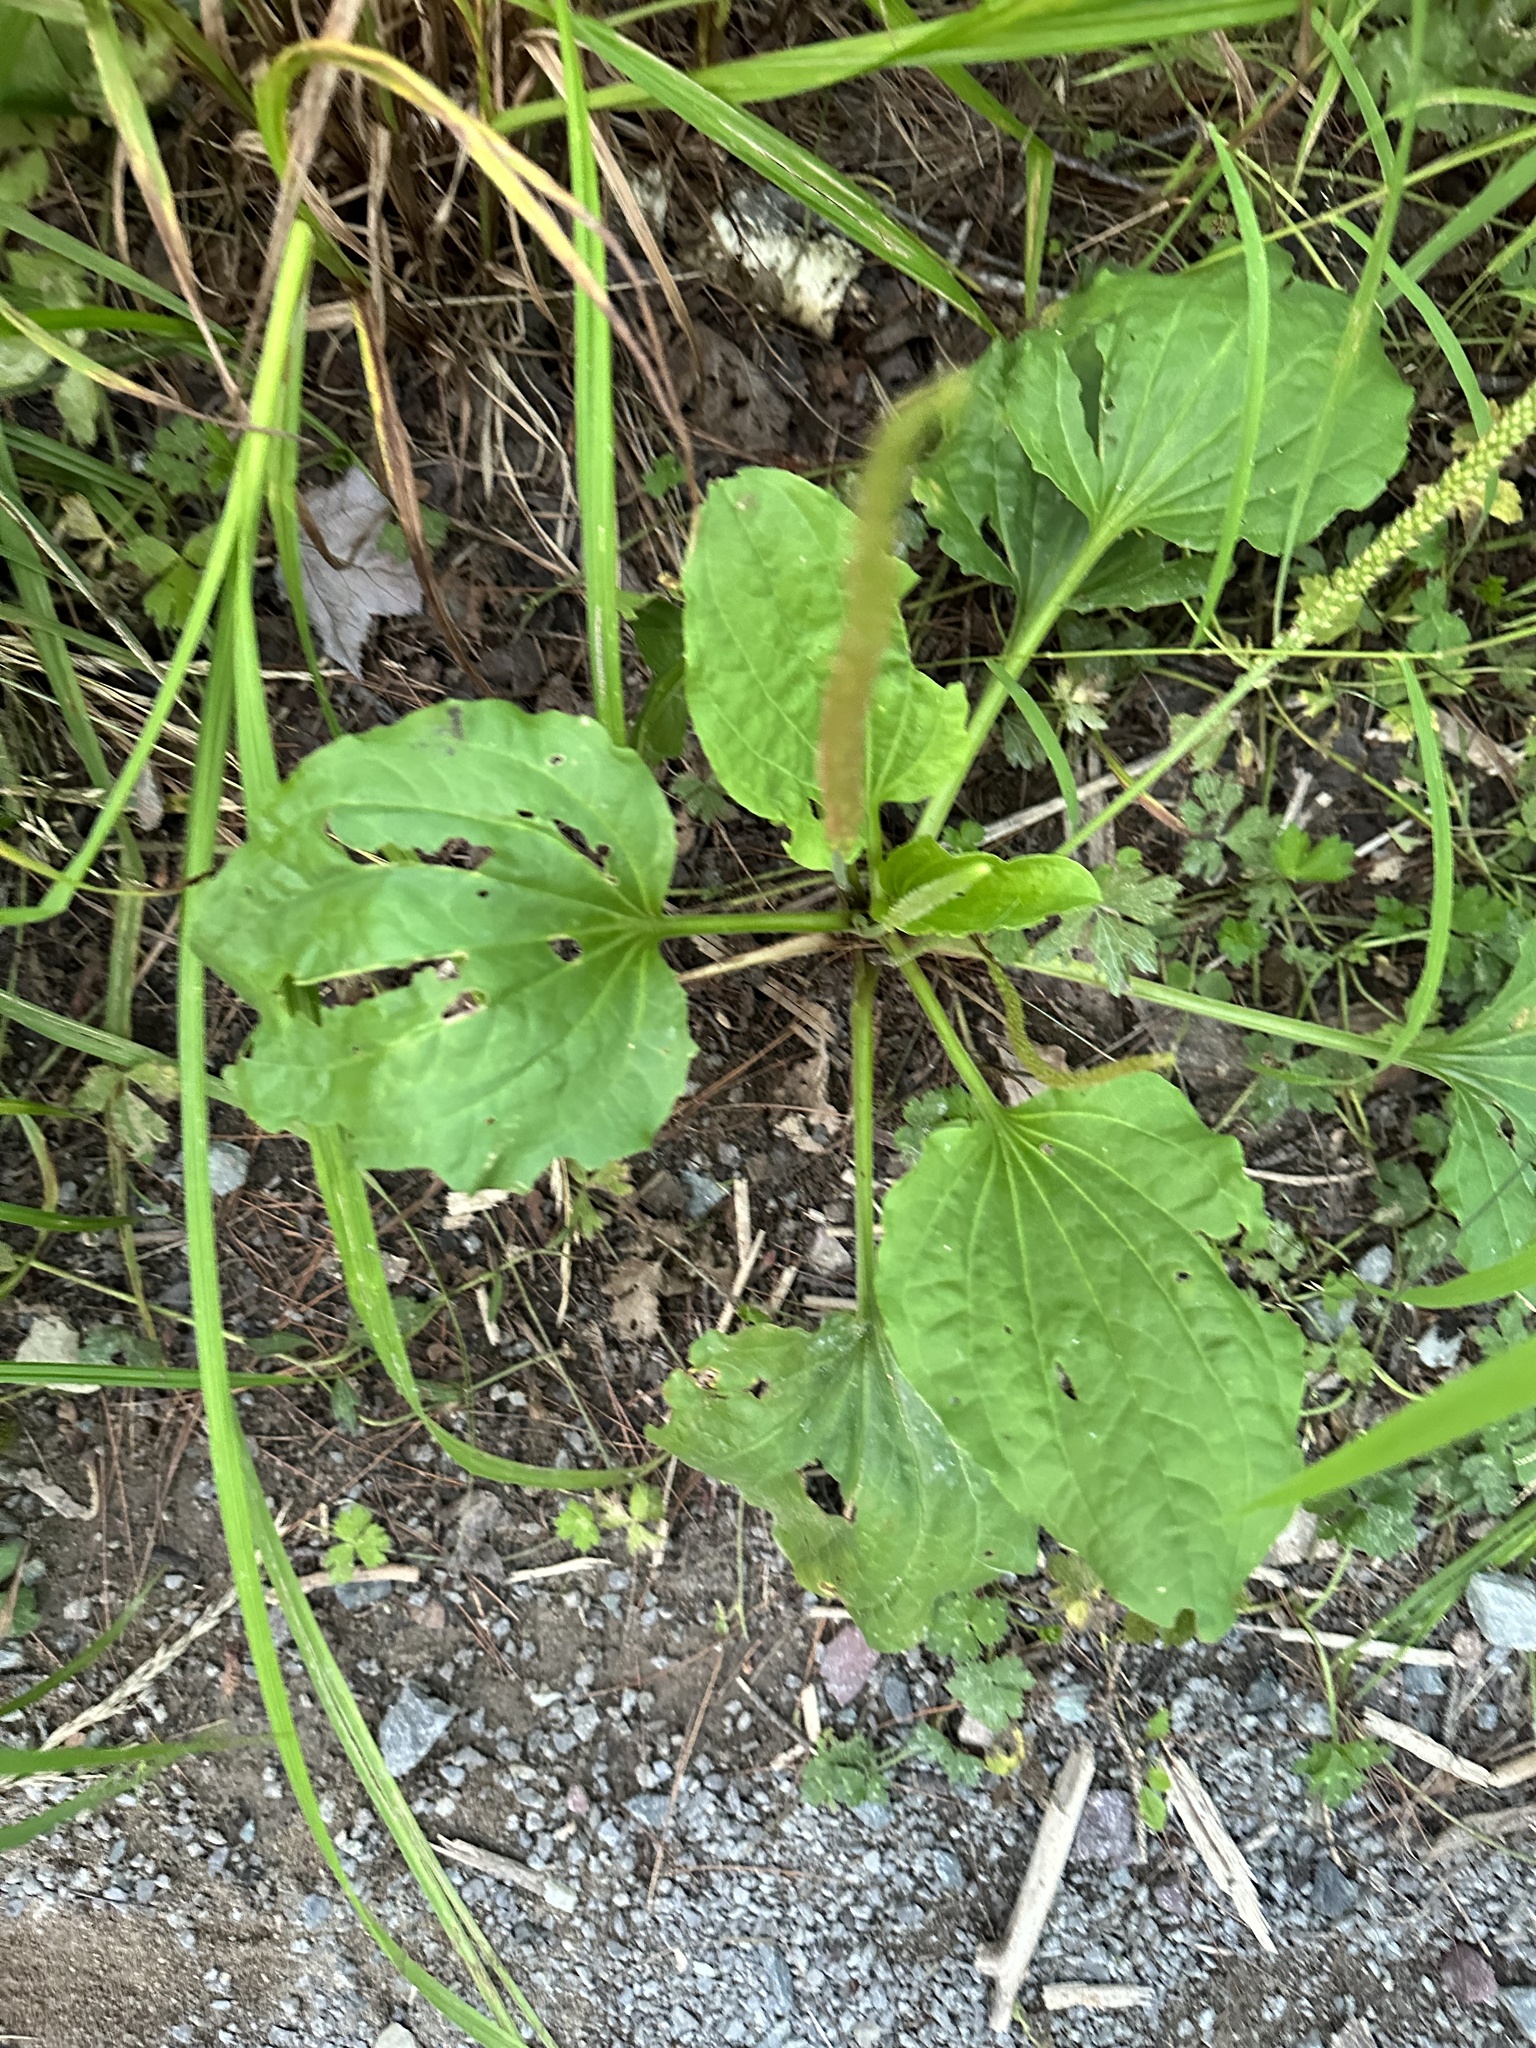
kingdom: Plantae
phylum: Tracheophyta
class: Magnoliopsida
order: Lamiales
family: Plantaginaceae
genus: Plantago
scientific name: Plantago major
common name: Common plantain
